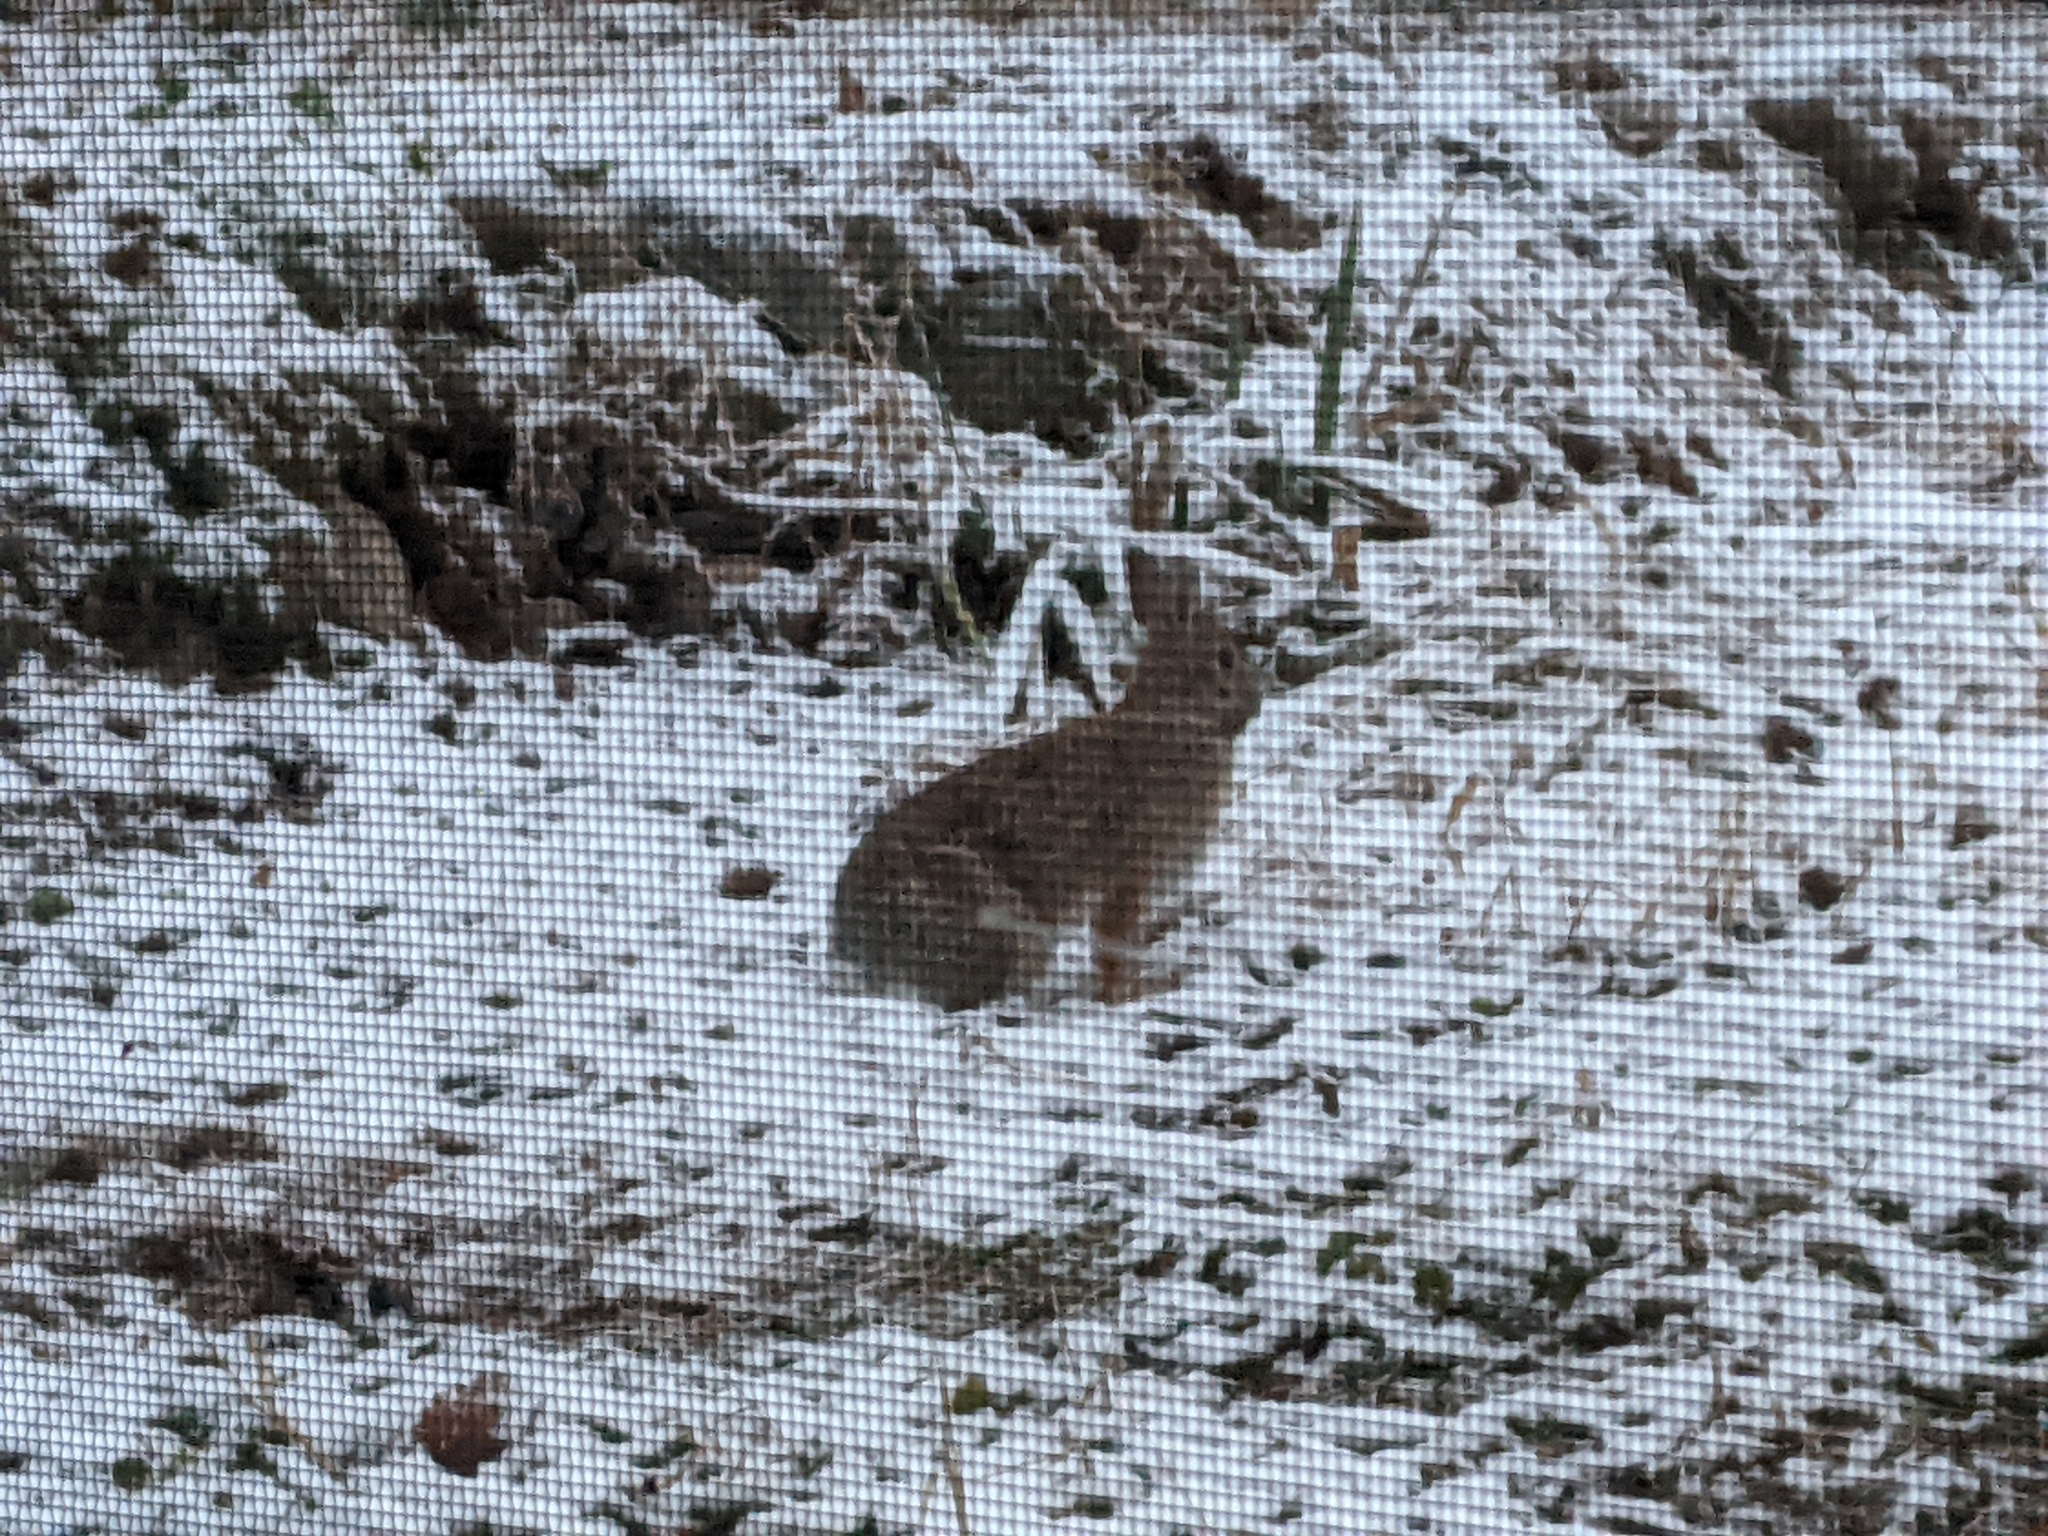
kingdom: Animalia
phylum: Chordata
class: Mammalia
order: Lagomorpha
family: Leporidae
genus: Sylvilagus
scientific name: Sylvilagus floridanus
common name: Eastern cottontail
